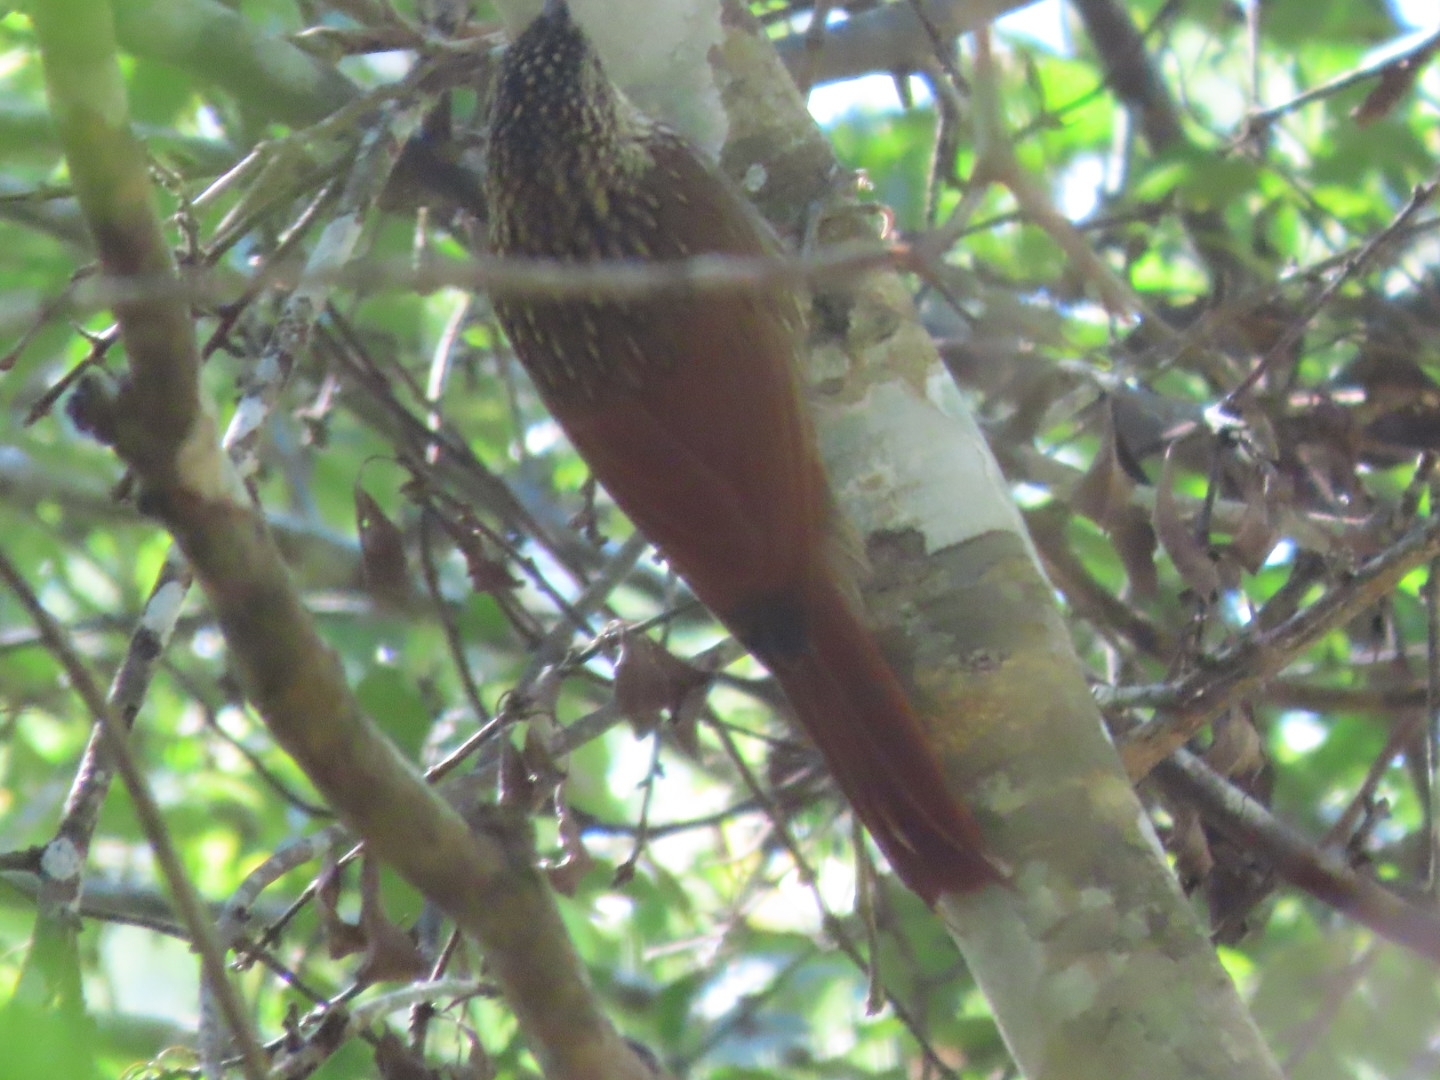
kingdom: Animalia
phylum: Chordata
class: Aves
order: Passeriformes
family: Furnariidae
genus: Xiphorhynchus
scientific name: Xiphorhynchus flavigaster
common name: Ivory-billed woodcreeper
